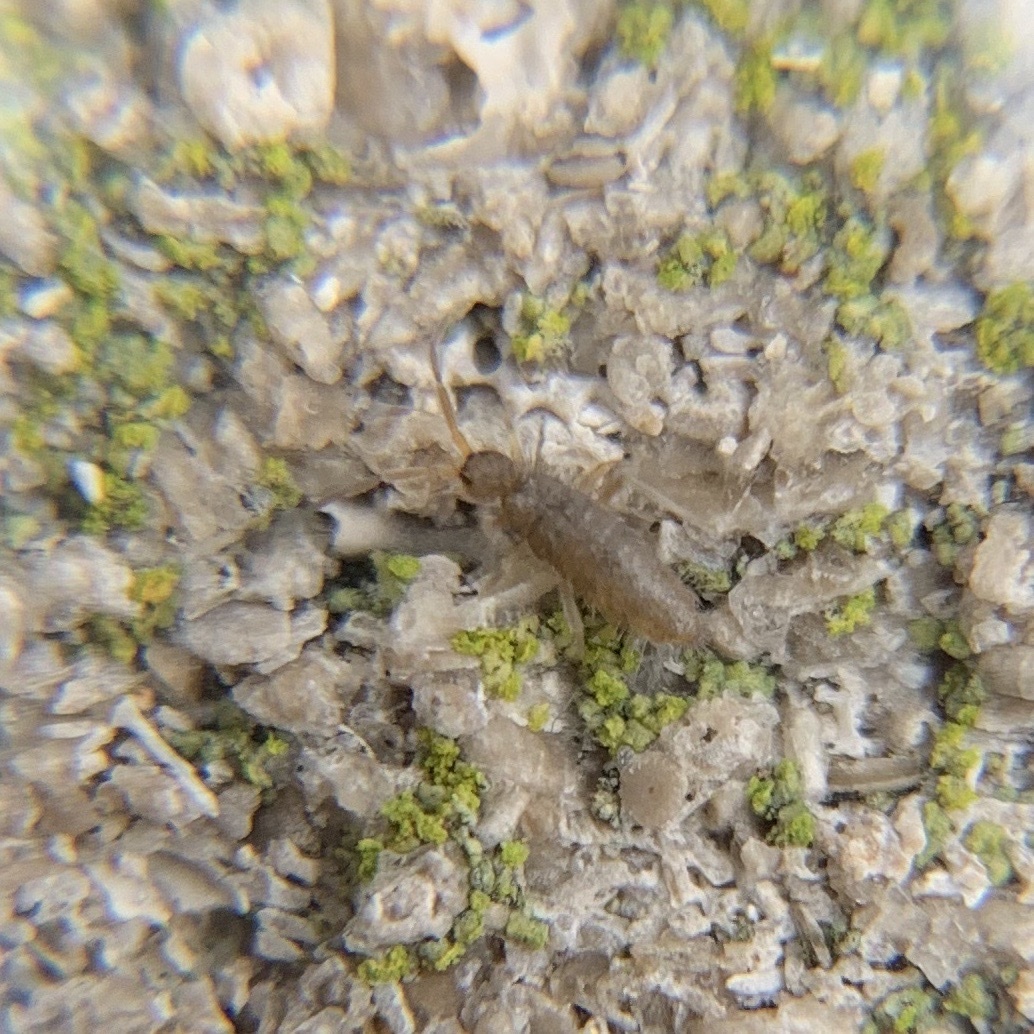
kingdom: Animalia
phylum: Arthropoda
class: Collembola
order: Entomobryomorpha
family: Entomobryidae
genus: Willowsia
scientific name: Willowsia buski
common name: Damp grain springtail
